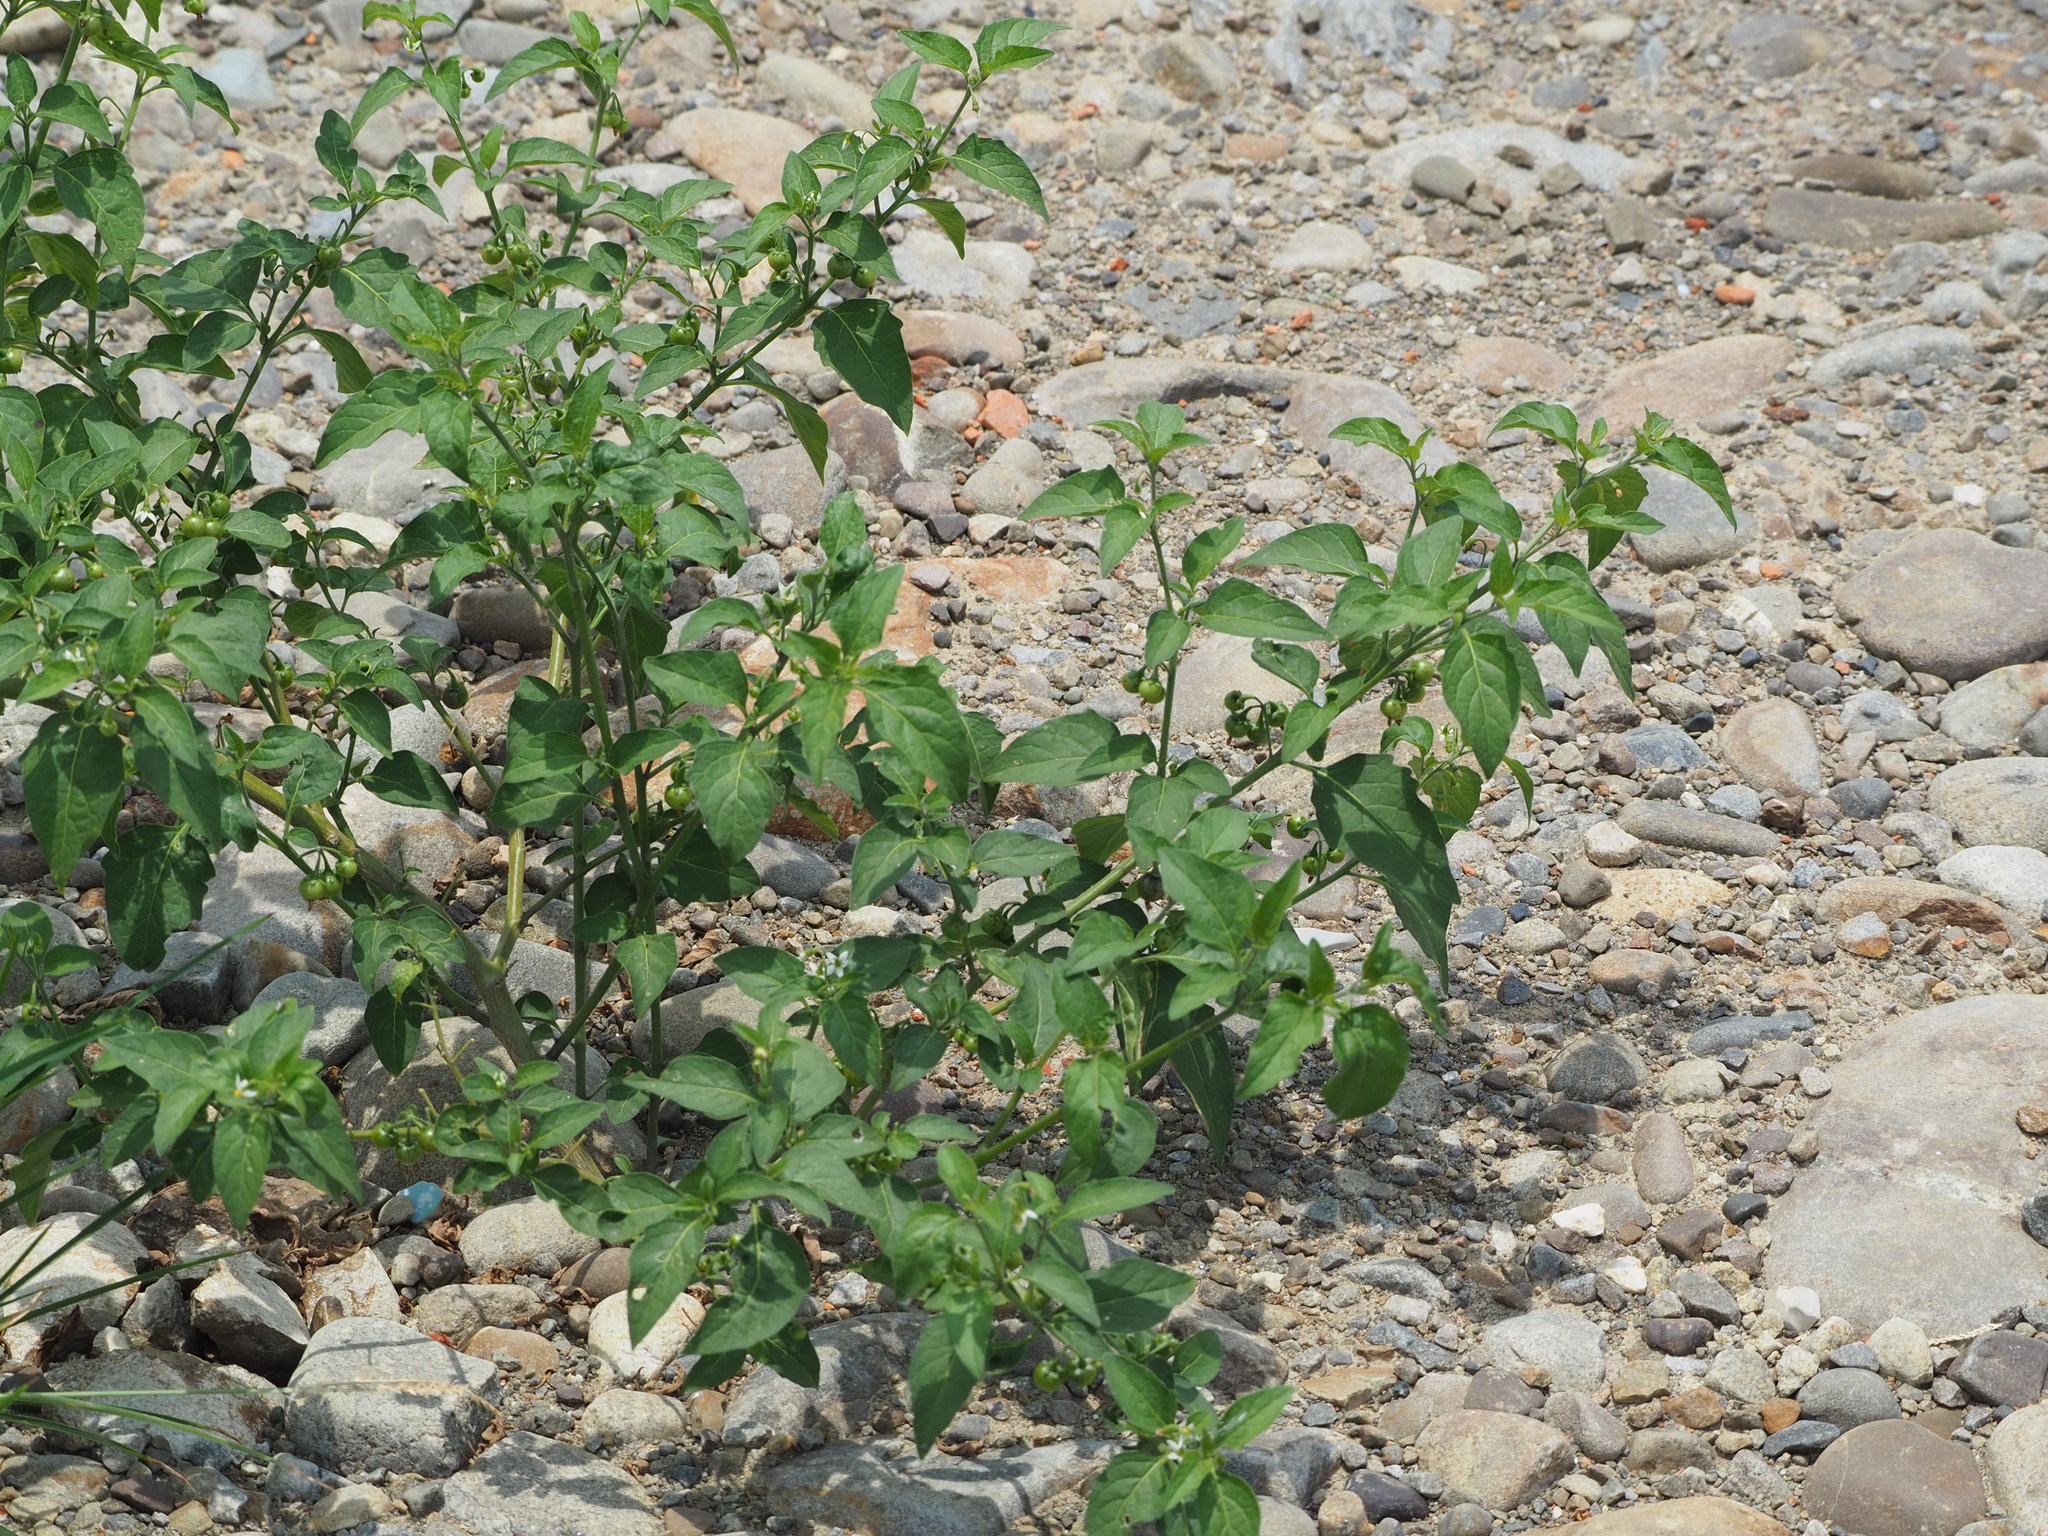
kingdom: Plantae
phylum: Tracheophyta
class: Magnoliopsida
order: Solanales
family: Solanaceae
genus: Solanum
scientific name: Solanum nigrum
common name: Black nightshade
